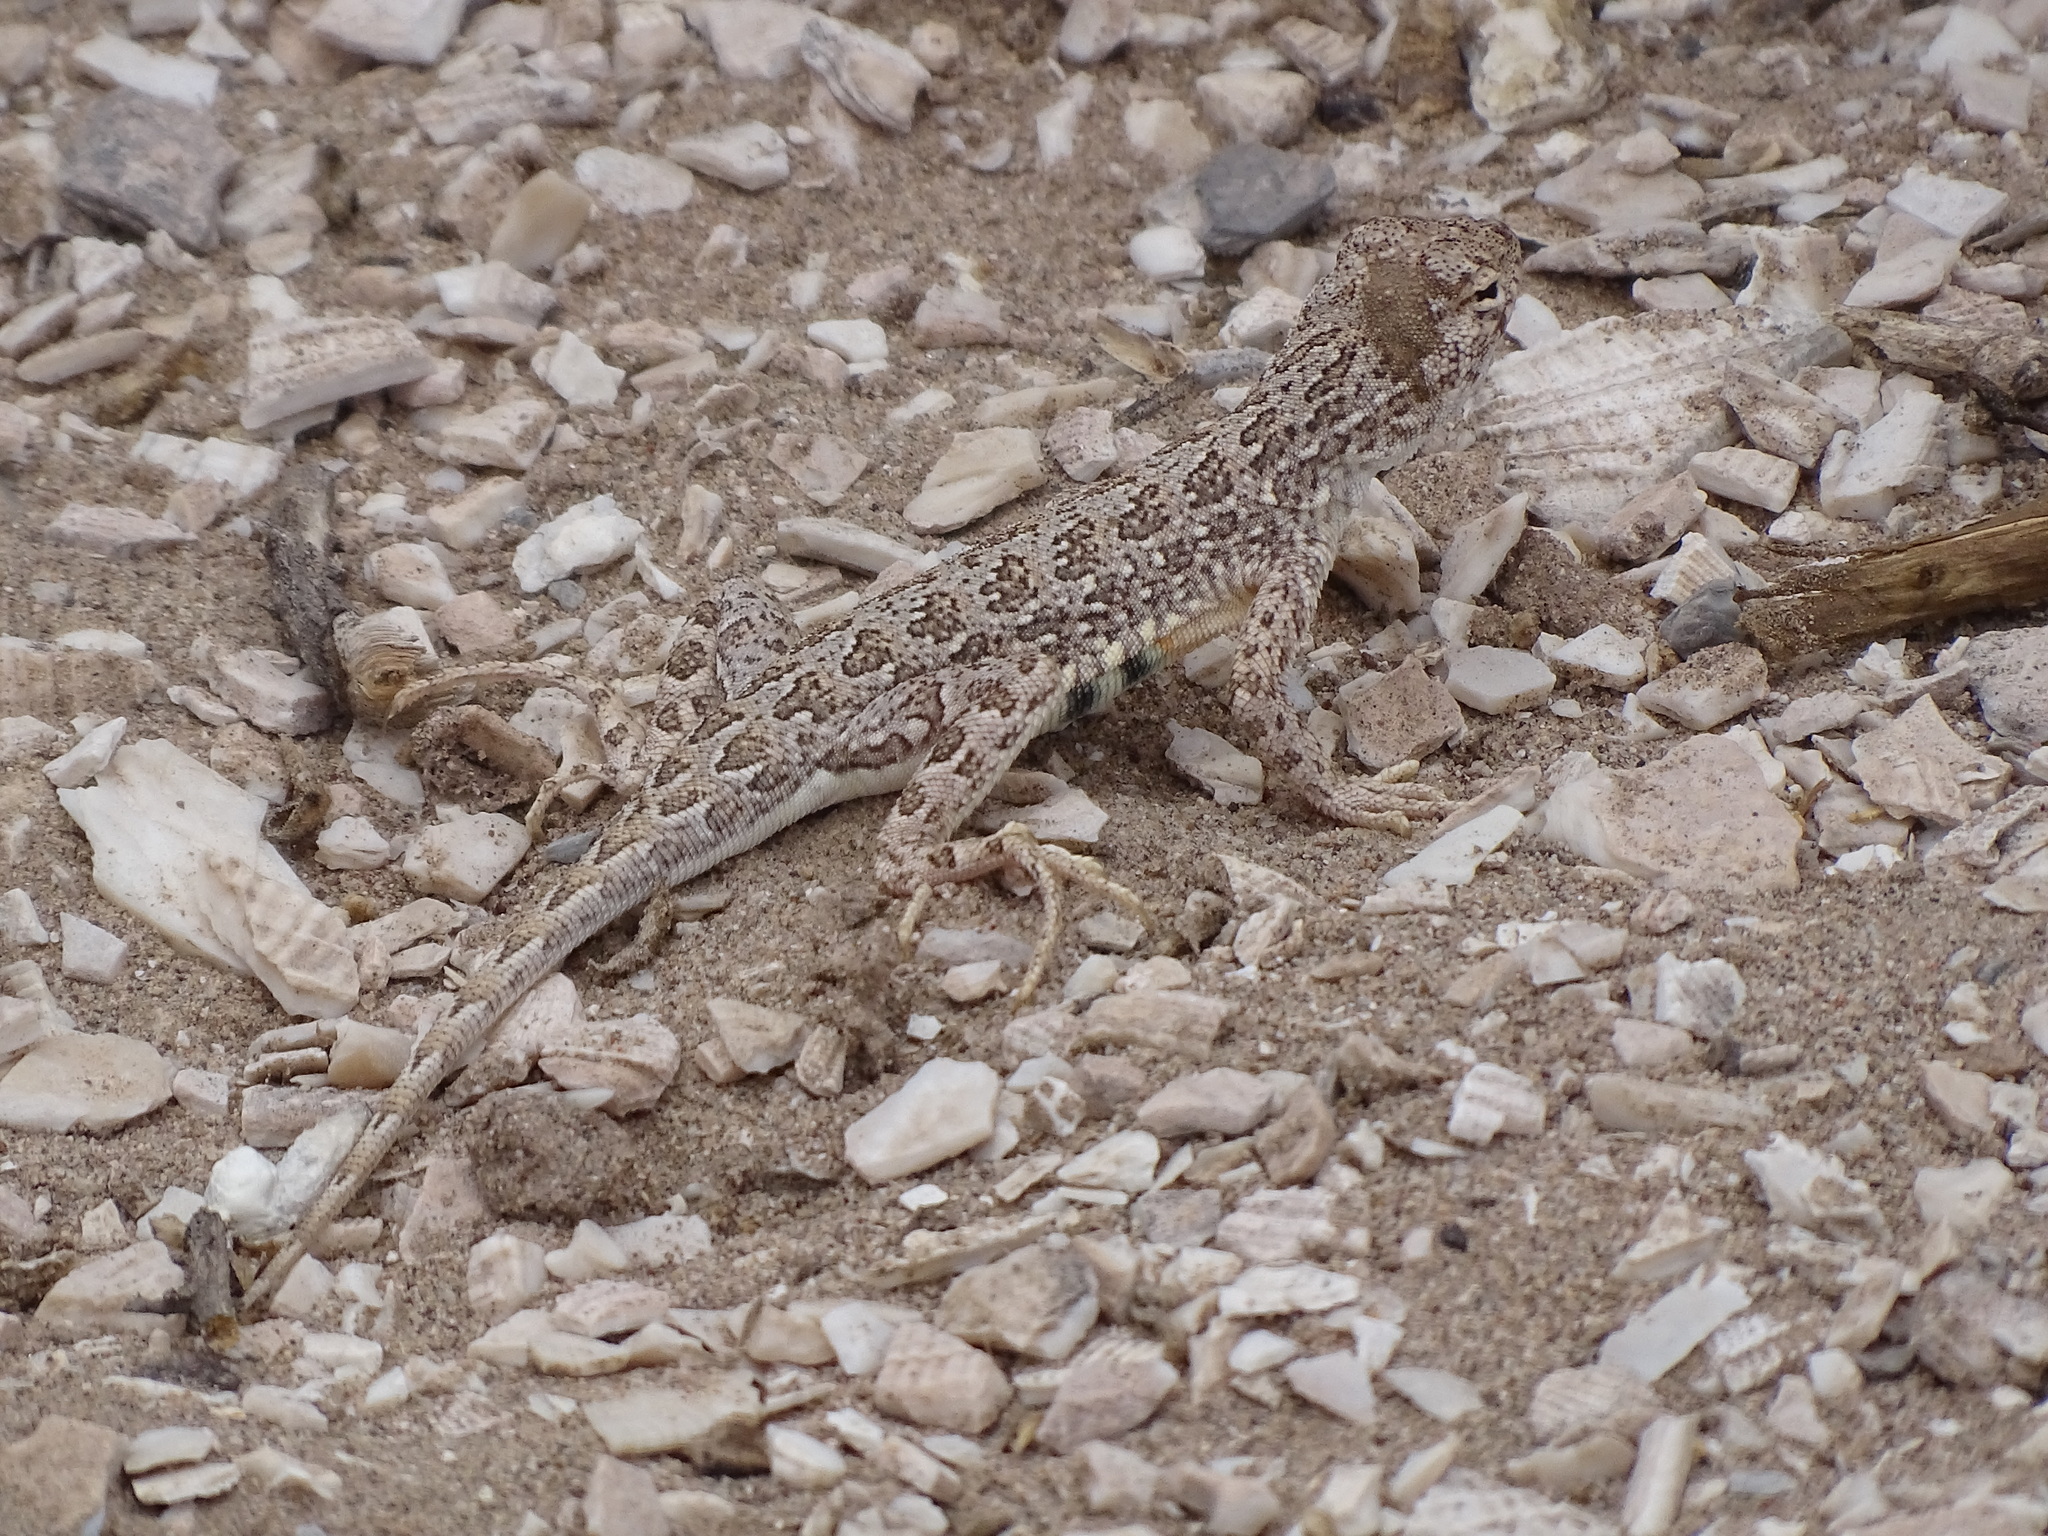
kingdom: Animalia
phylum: Chordata
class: Squamata
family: Phrynosomatidae
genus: Holbrookia
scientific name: Holbrookia elegans
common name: Elegant earless lizard
